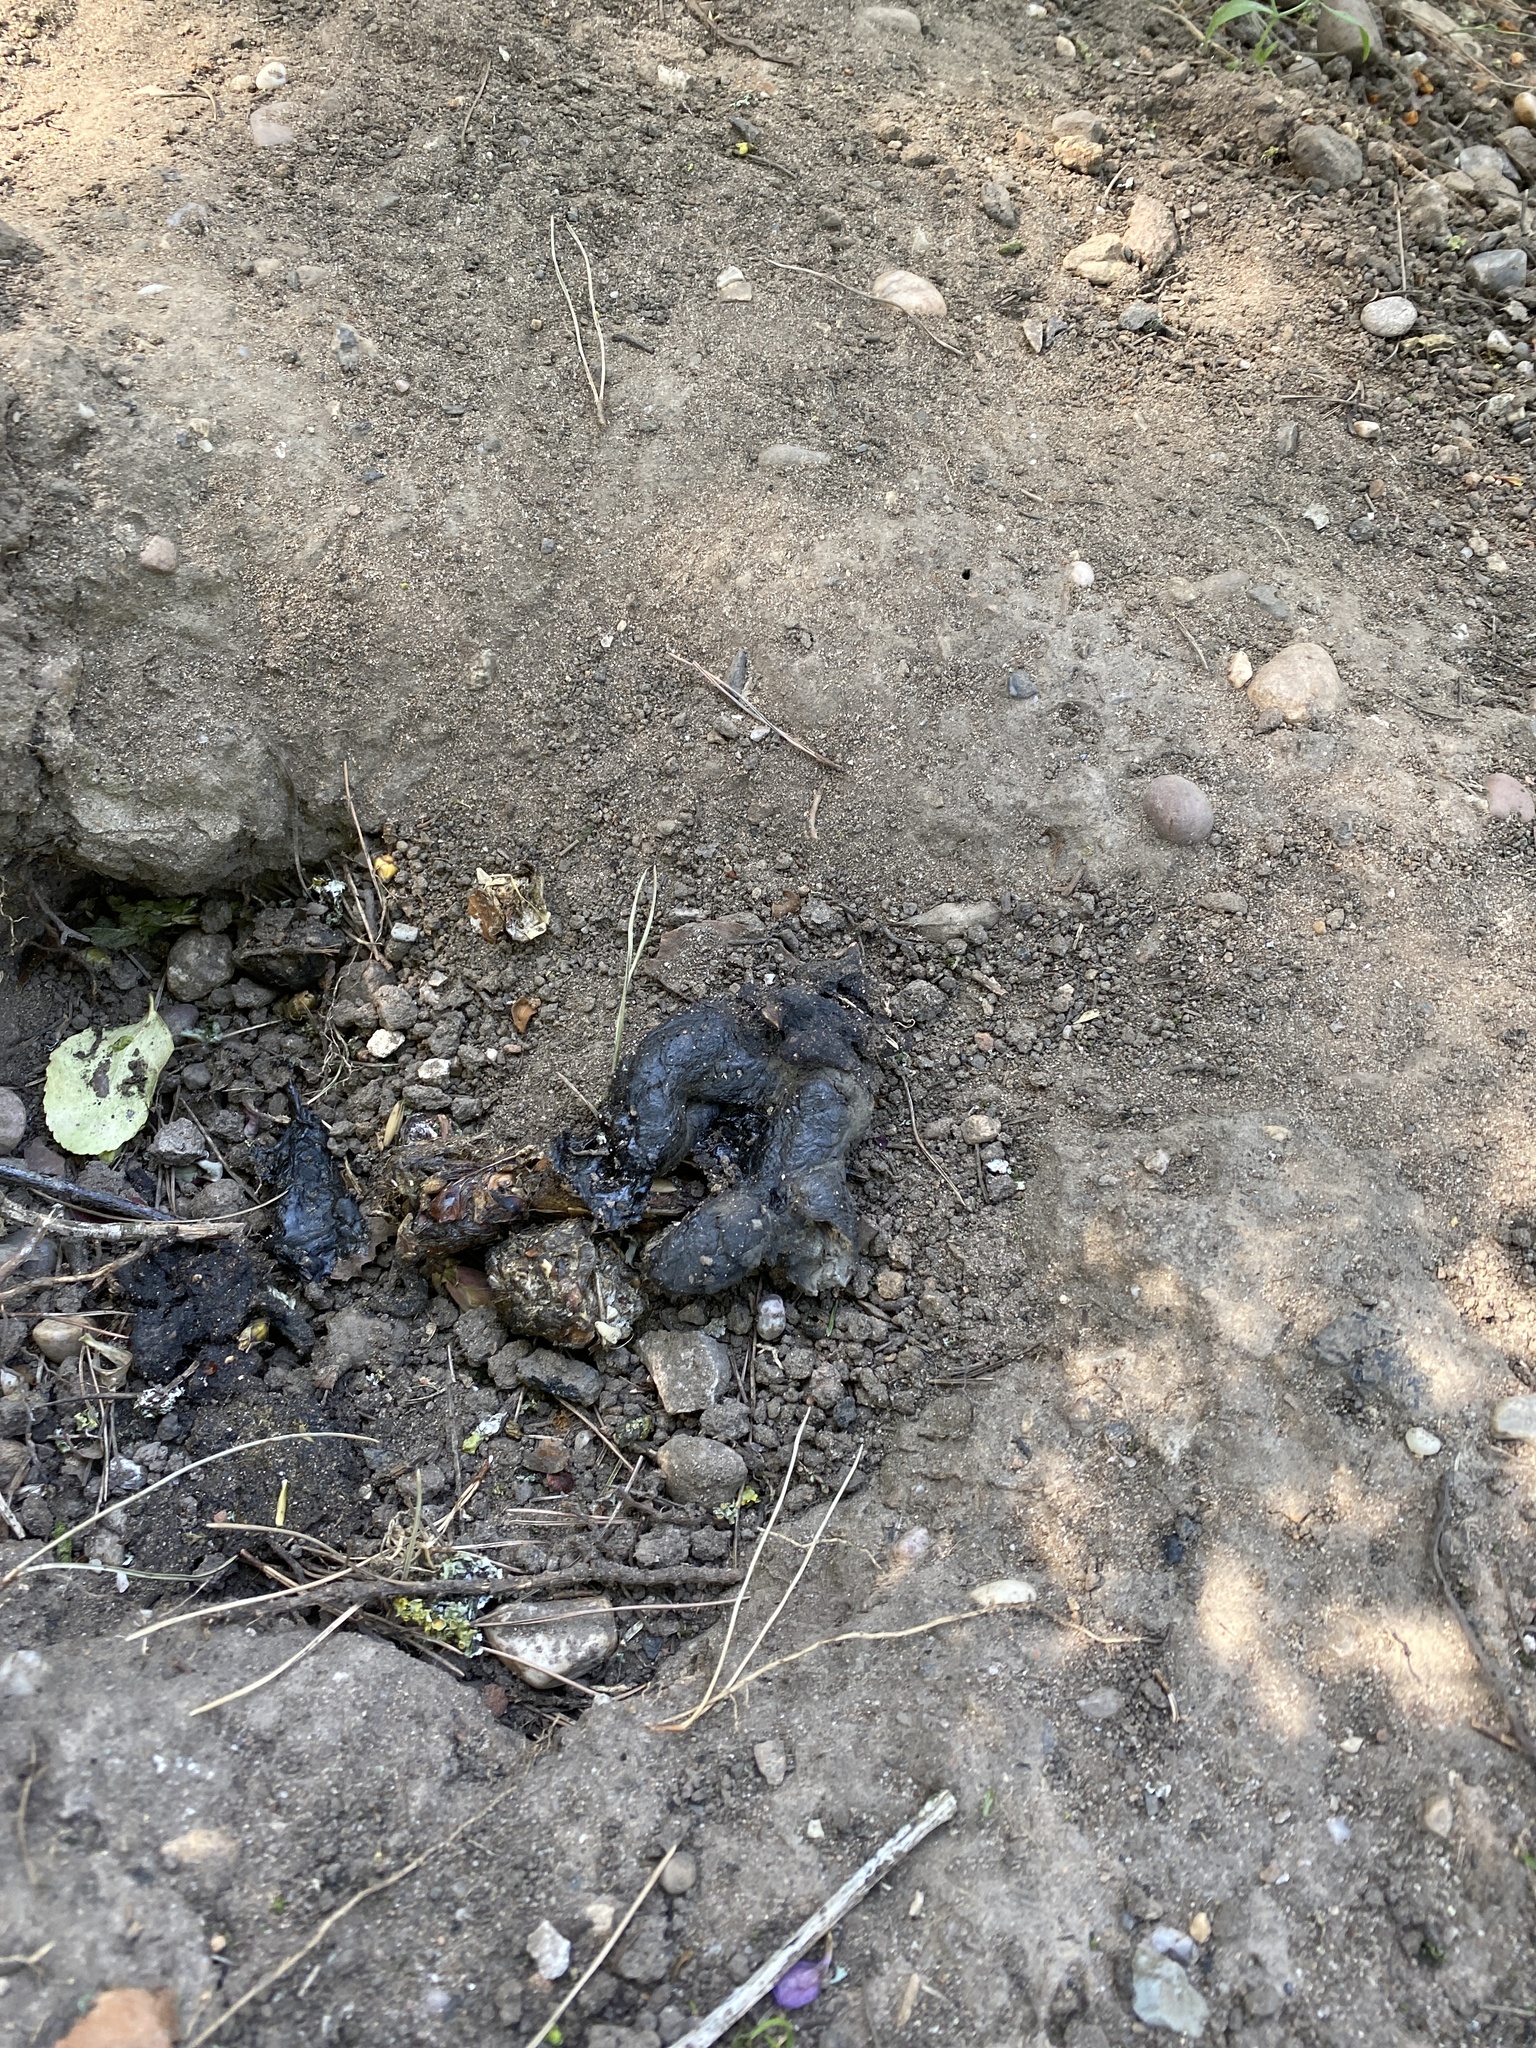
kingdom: Animalia
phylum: Chordata
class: Mammalia
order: Carnivora
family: Mustelidae
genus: Meles
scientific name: Meles meles
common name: Eurasian badger
